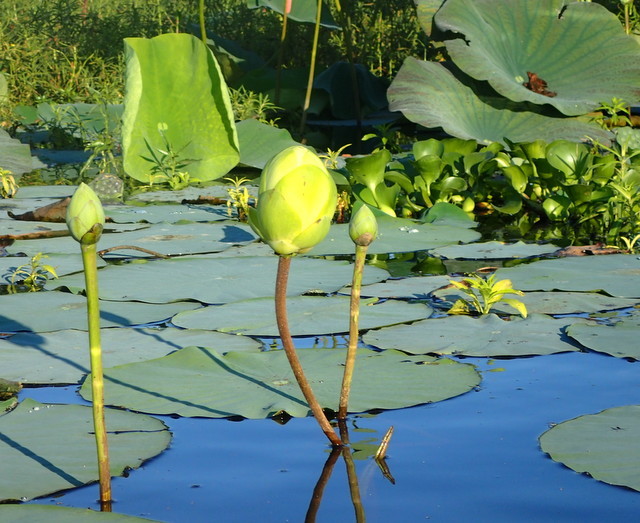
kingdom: Plantae
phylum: Tracheophyta
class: Magnoliopsida
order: Proteales
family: Nelumbonaceae
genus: Nelumbo
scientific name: Nelumbo lutea
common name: American lotus
